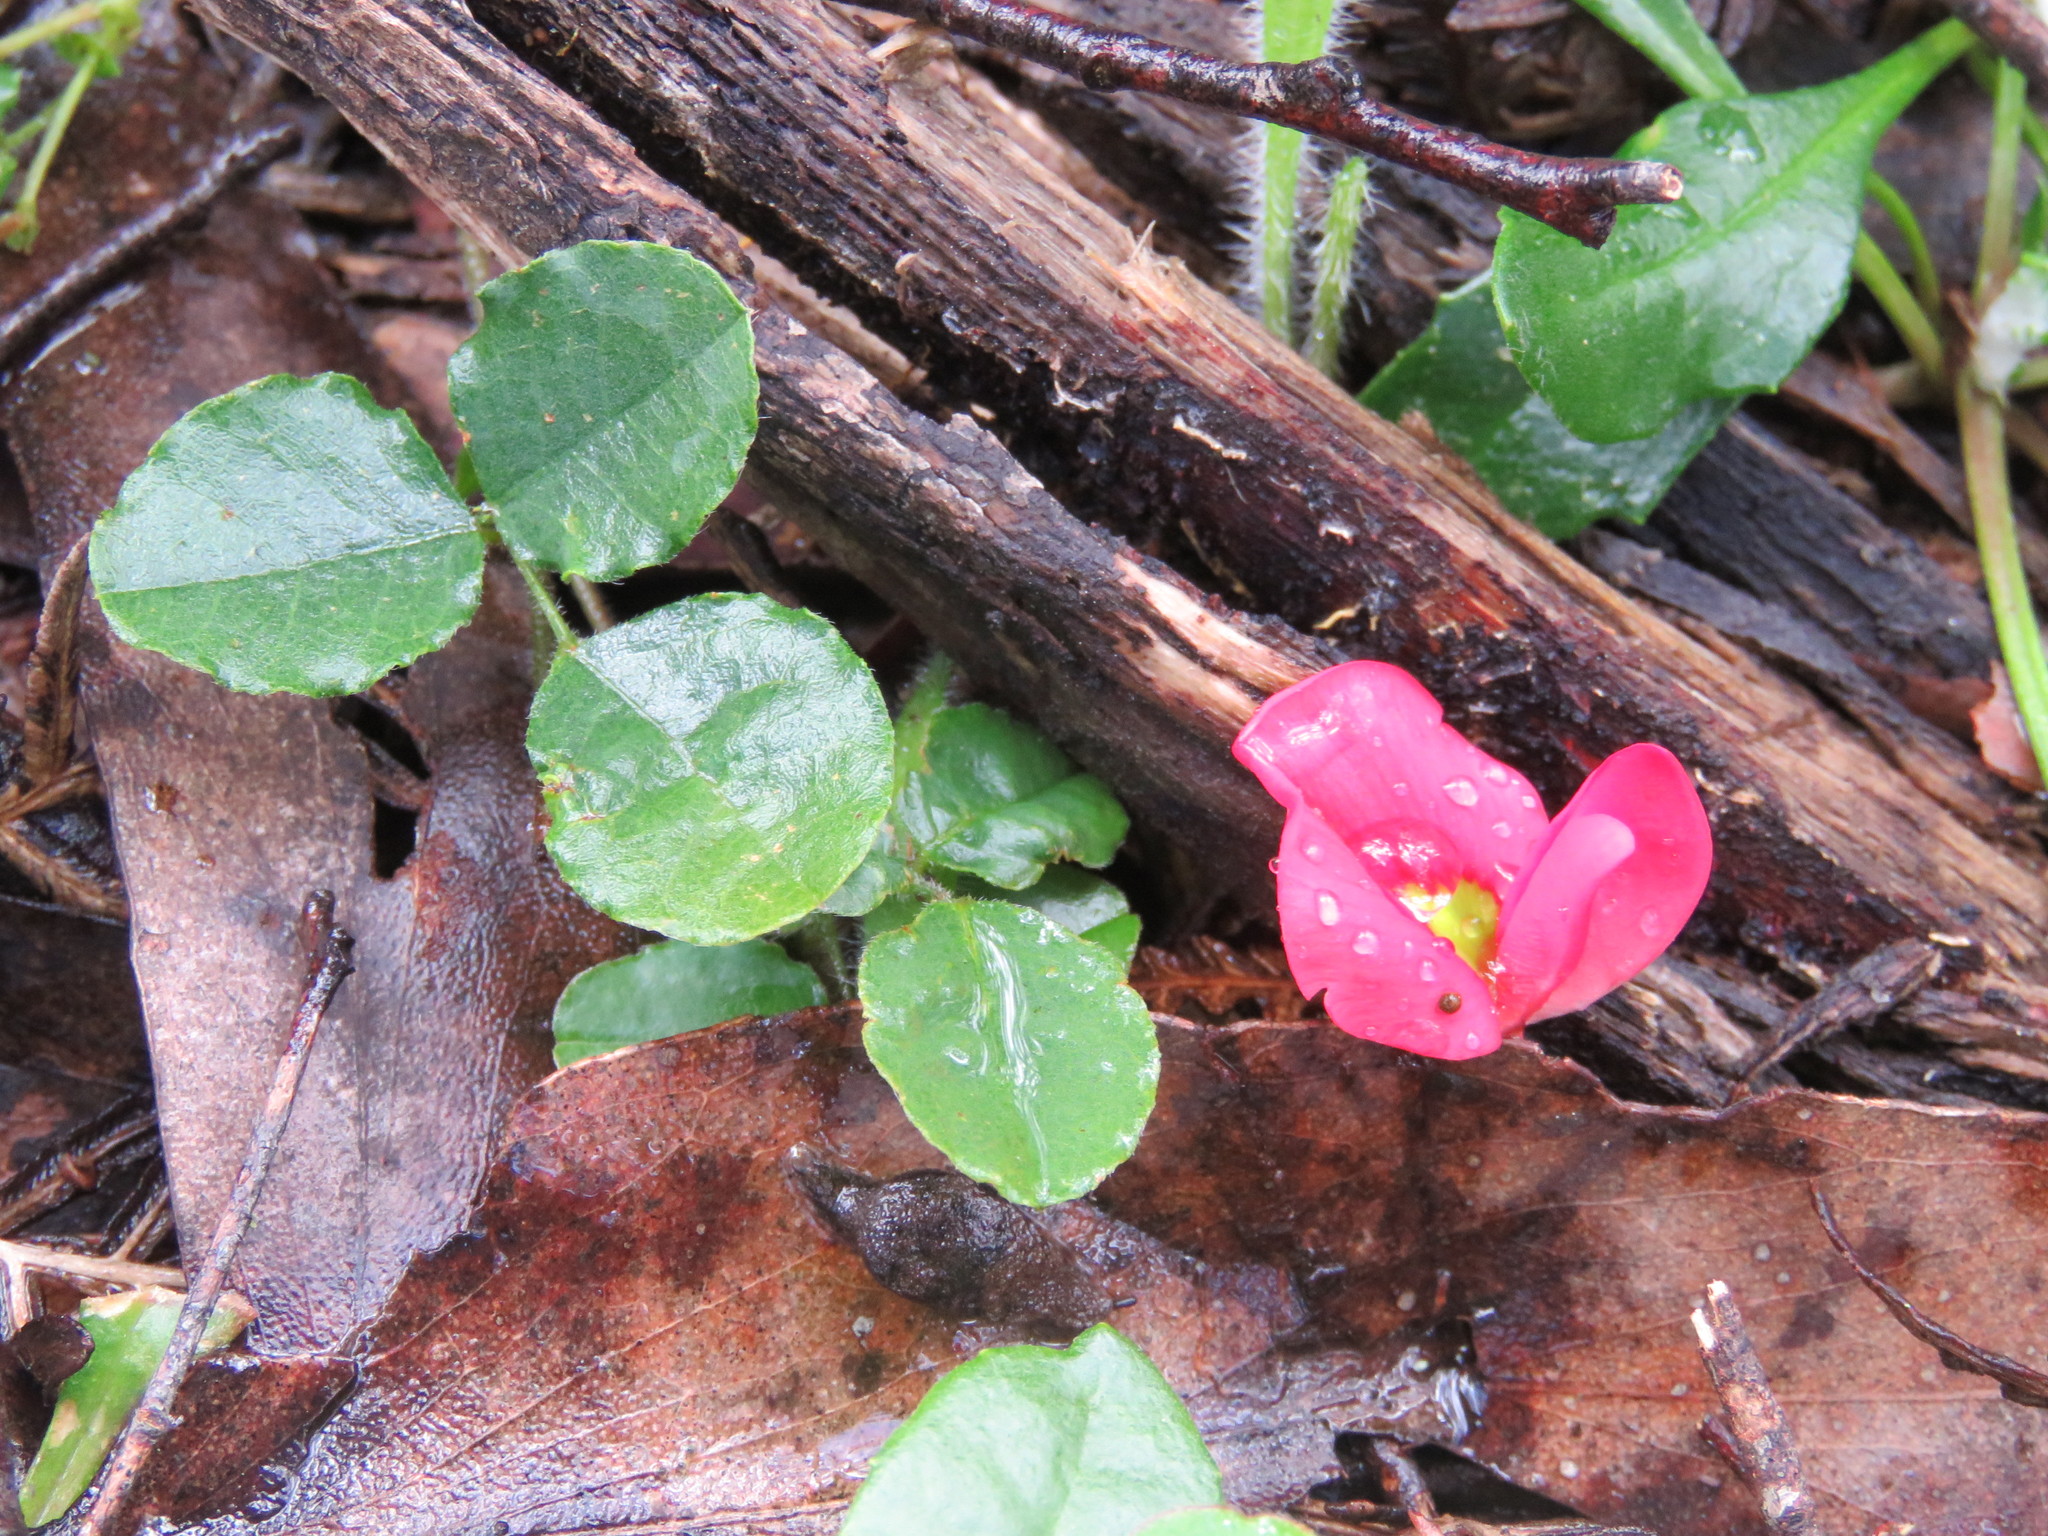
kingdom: Plantae
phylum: Tracheophyta
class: Magnoliopsida
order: Fabales
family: Fabaceae
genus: Kennedia
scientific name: Kennedia prostrata
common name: Running-postman
